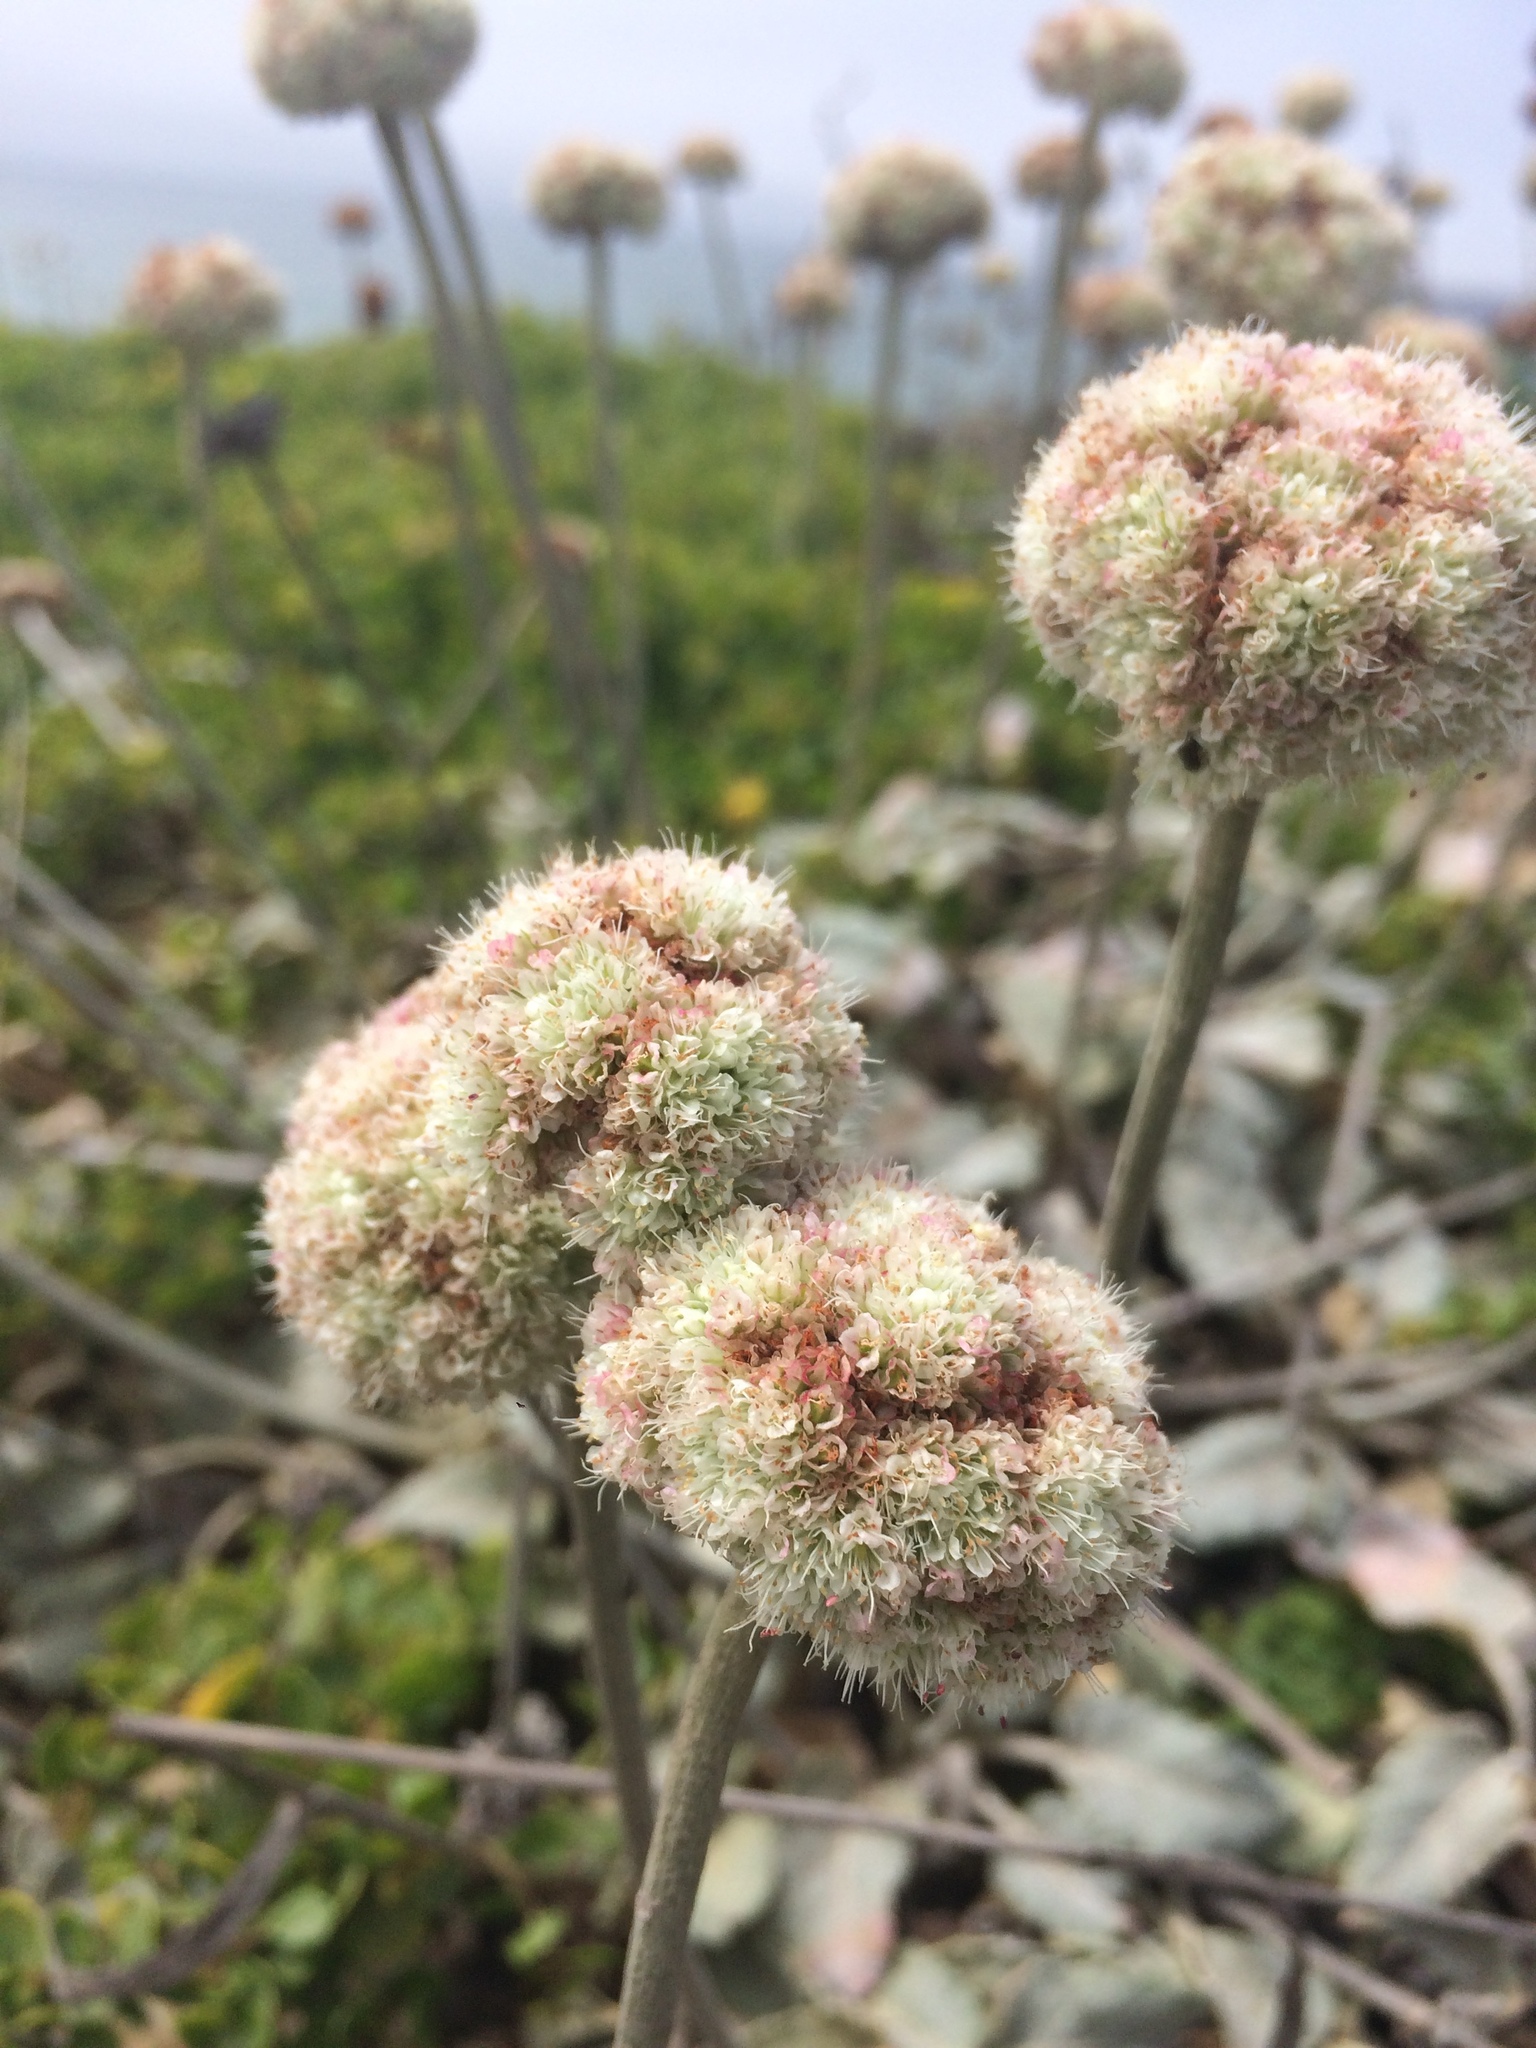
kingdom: Plantae
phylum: Tracheophyta
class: Magnoliopsida
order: Caryophyllales
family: Polygonaceae
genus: Eriogonum
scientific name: Eriogonum latifolium
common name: Seaside wild buckwheat
